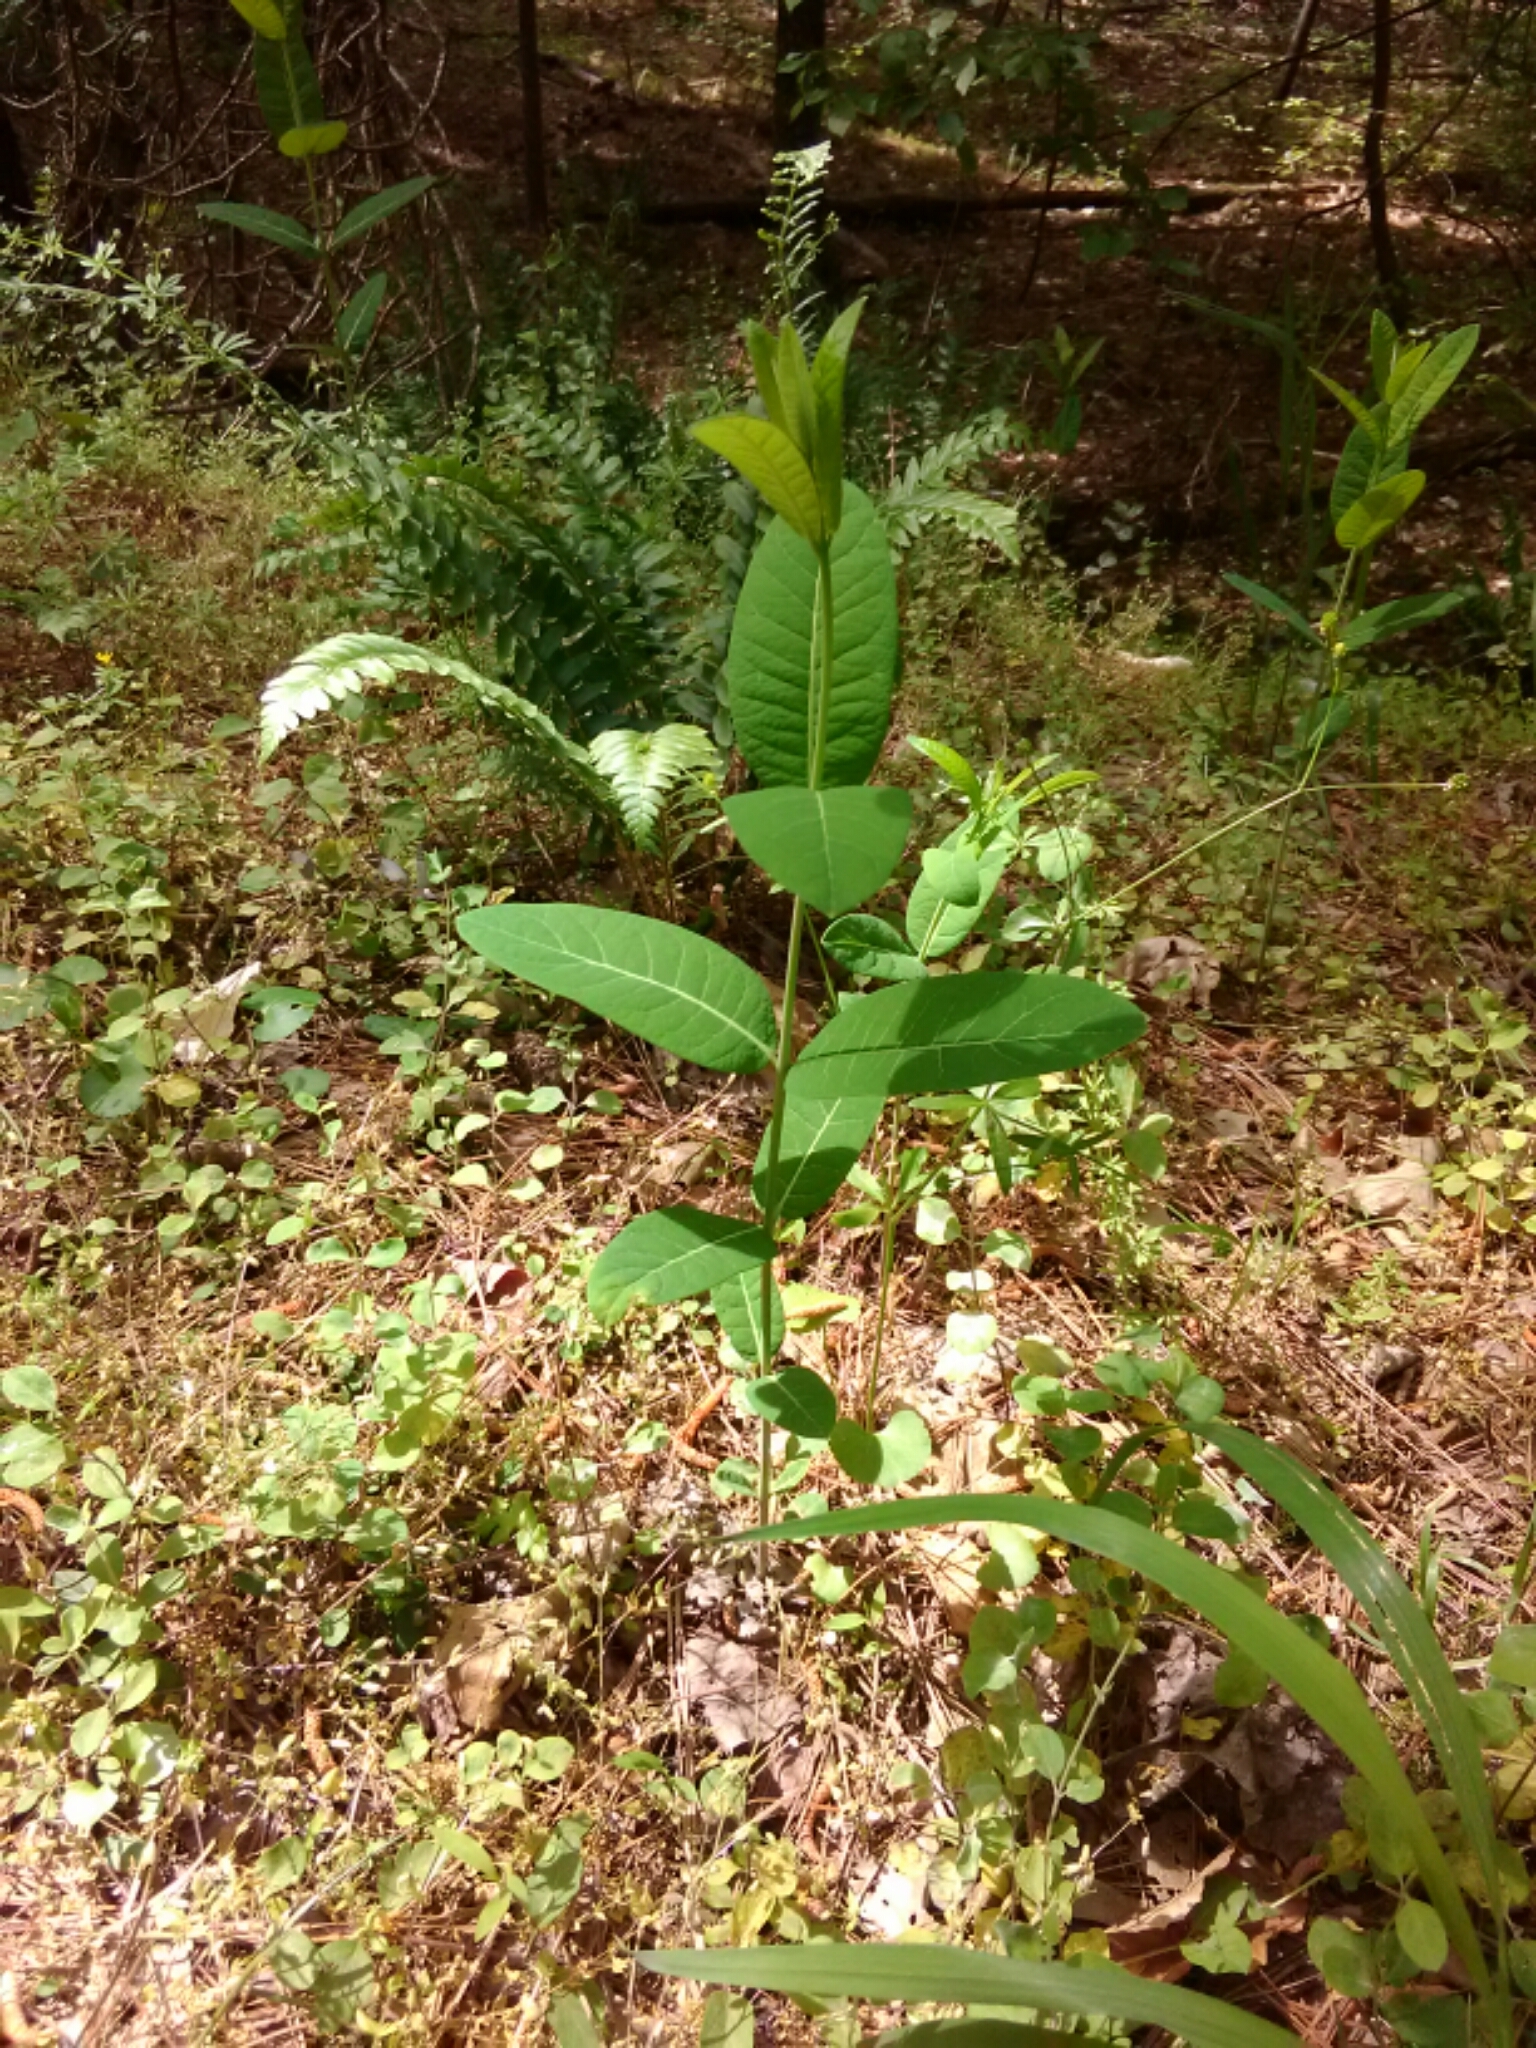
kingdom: Plantae
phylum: Tracheophyta
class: Magnoliopsida
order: Gentianales
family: Apocynaceae
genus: Apocynum
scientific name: Apocynum cannabinum
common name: Hemp dogbane
